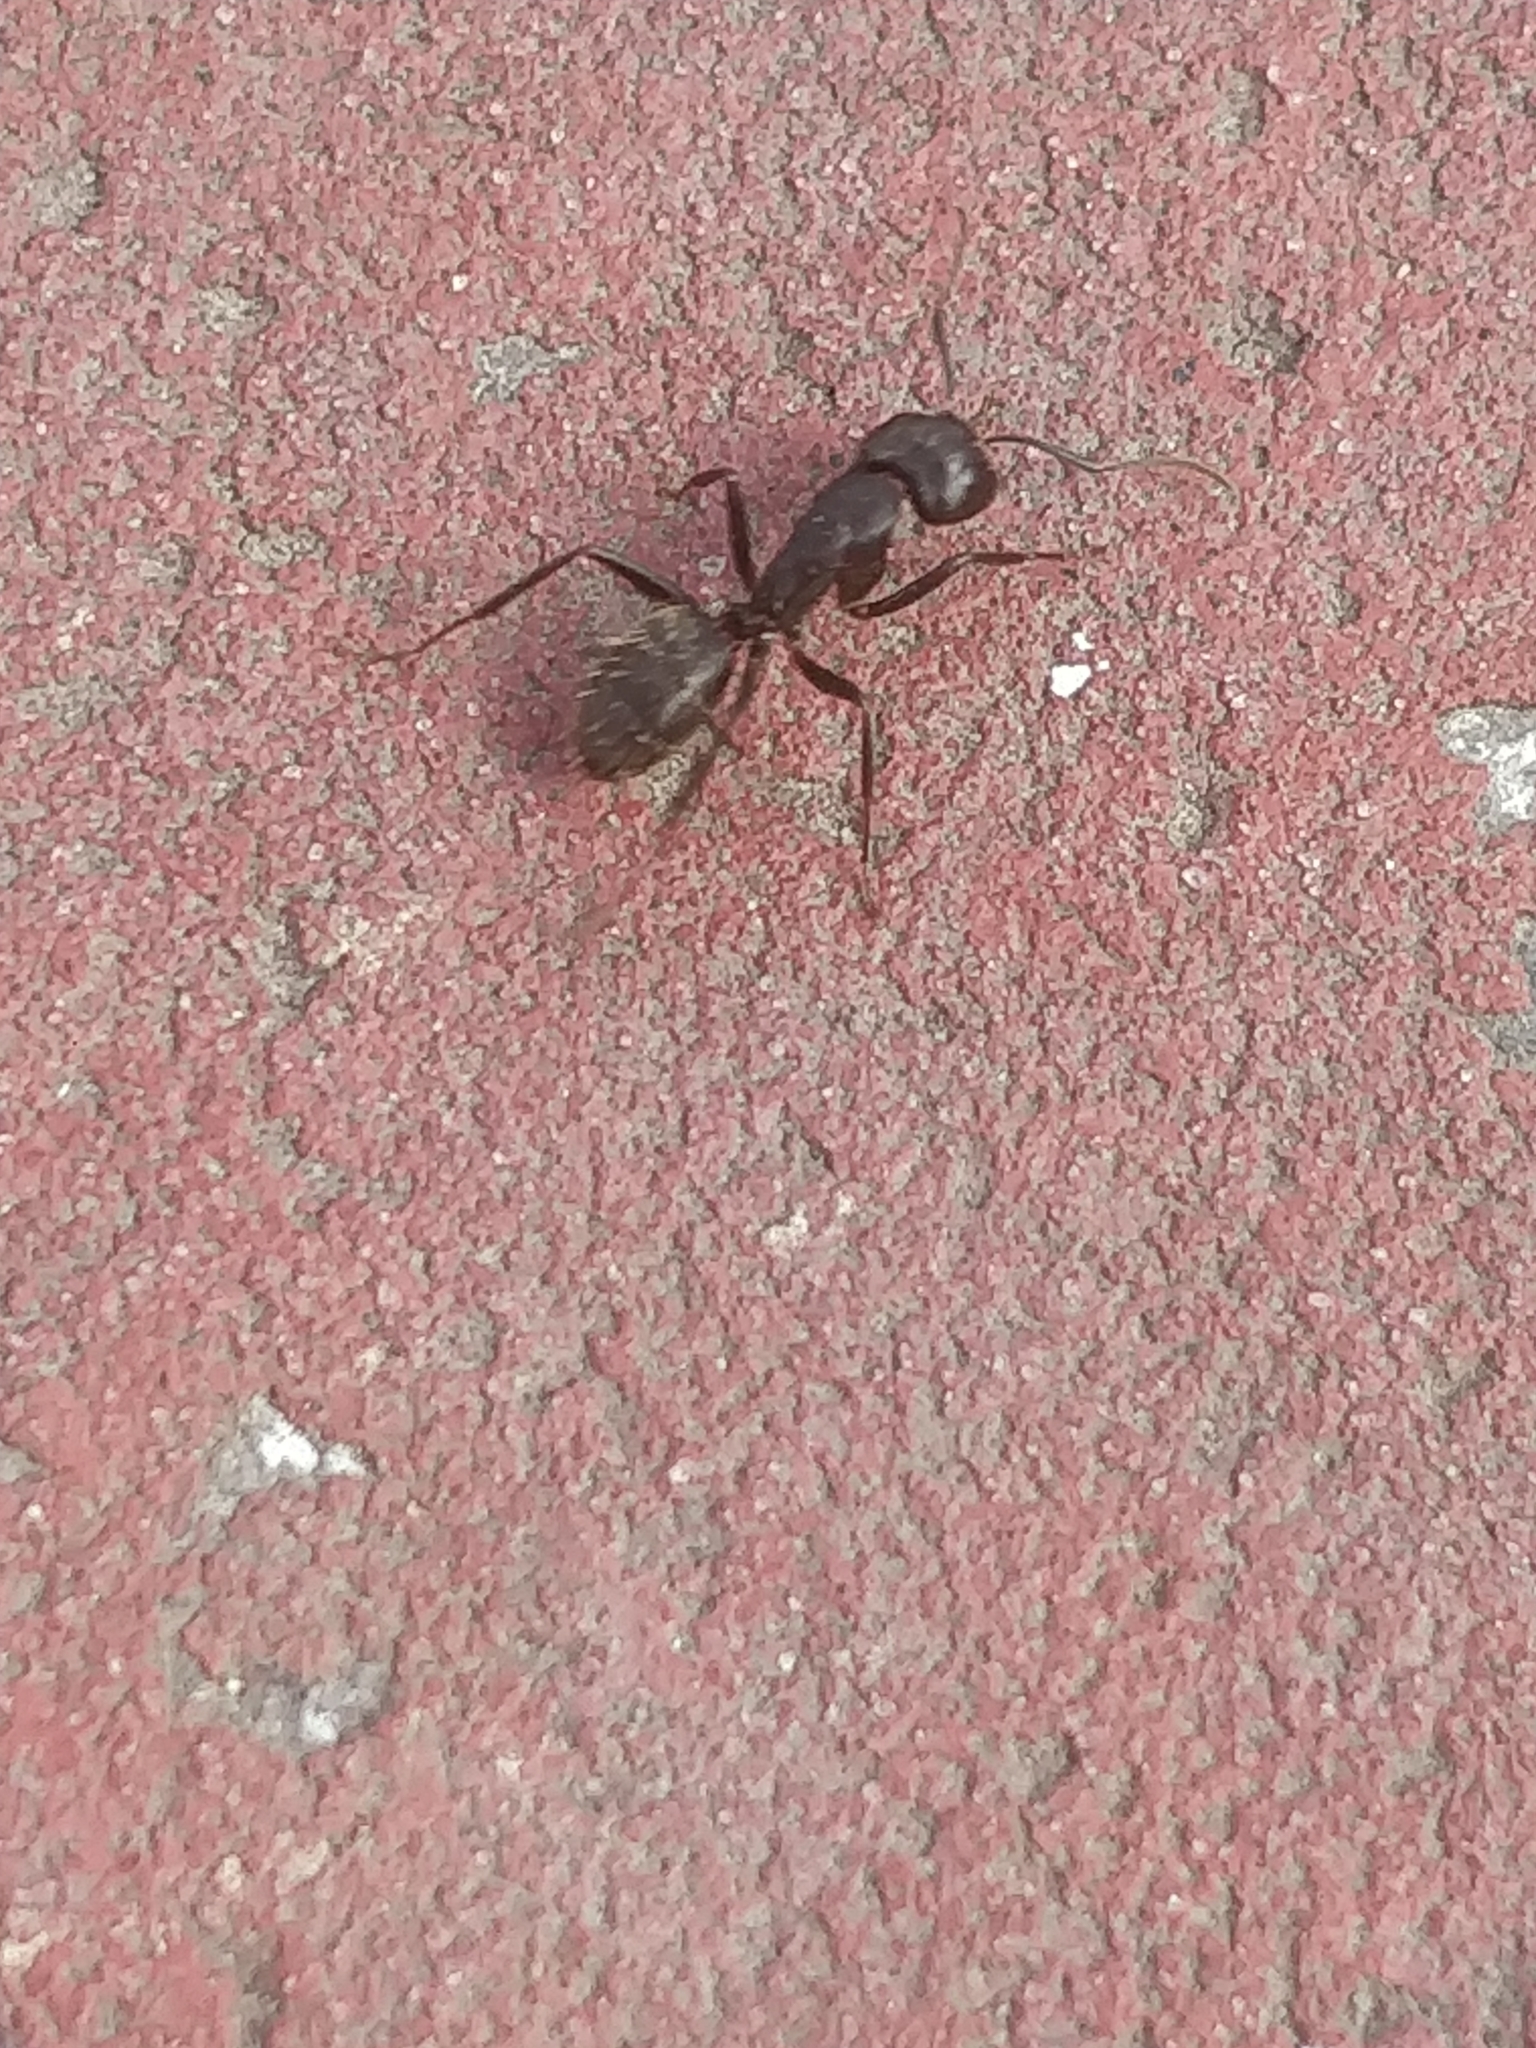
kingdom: Animalia
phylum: Arthropoda
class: Insecta
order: Hymenoptera
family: Formicidae
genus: Camponotus
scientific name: Camponotus pennsylvanicus
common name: Black carpenter ant
